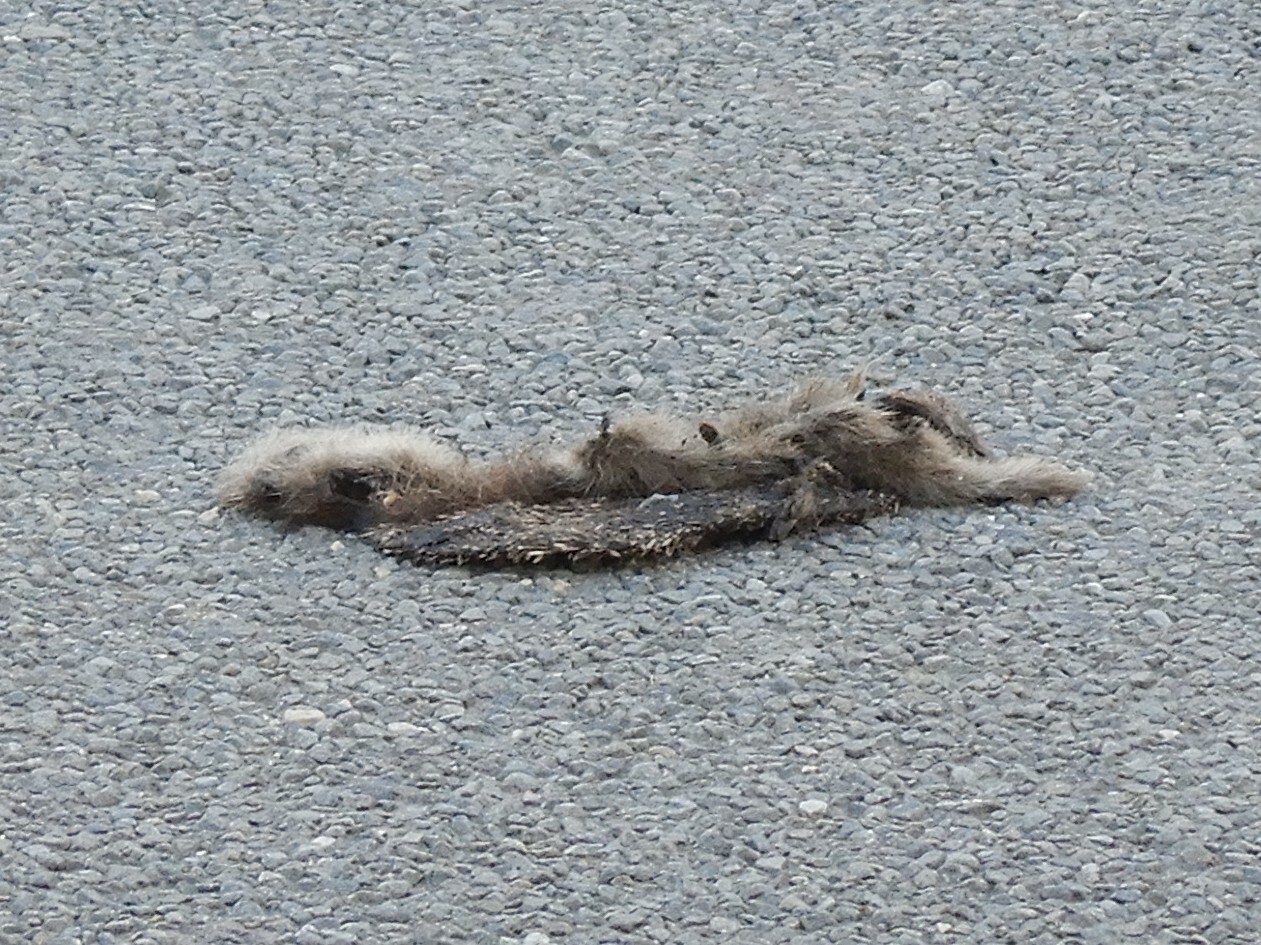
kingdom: Animalia
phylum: Chordata
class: Mammalia
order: Erinaceomorpha
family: Erinaceidae
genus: Erinaceus
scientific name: Erinaceus europaeus
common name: West european hedgehog
